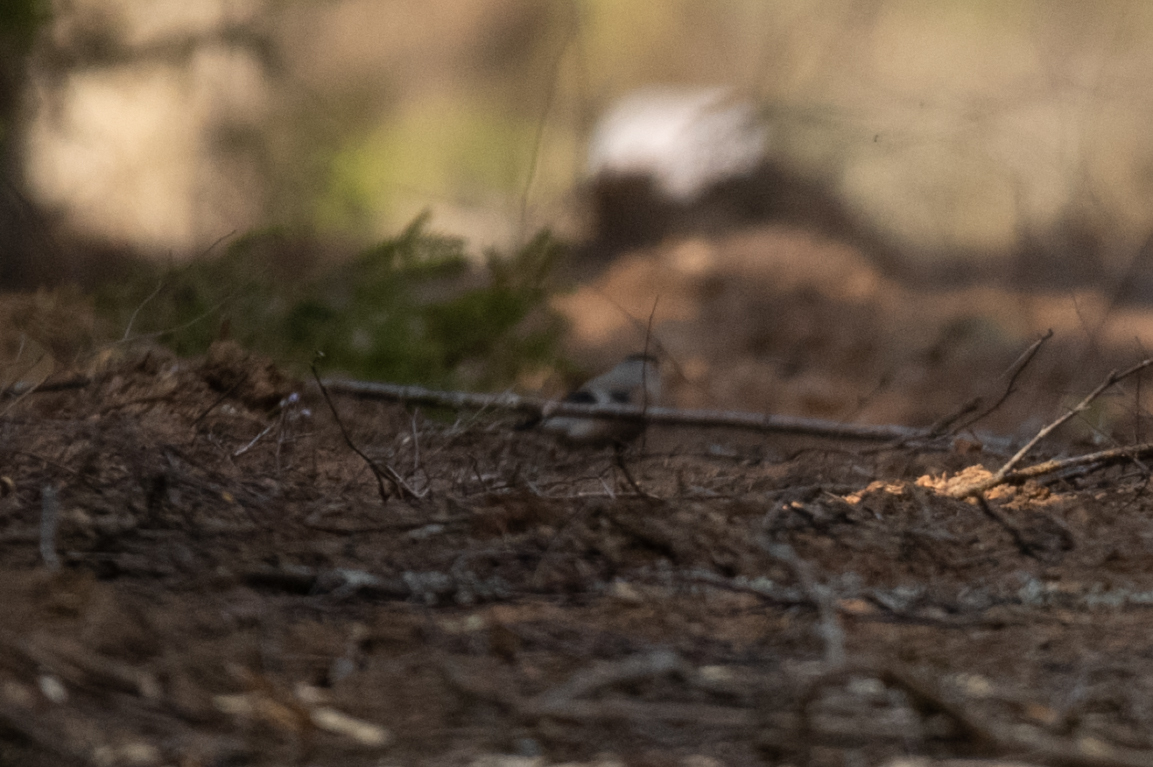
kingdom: Animalia
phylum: Chordata
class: Aves
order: Passeriformes
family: Fringillidae
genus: Pyrrhula
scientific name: Pyrrhula pyrrhula
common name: Eurasian bullfinch
